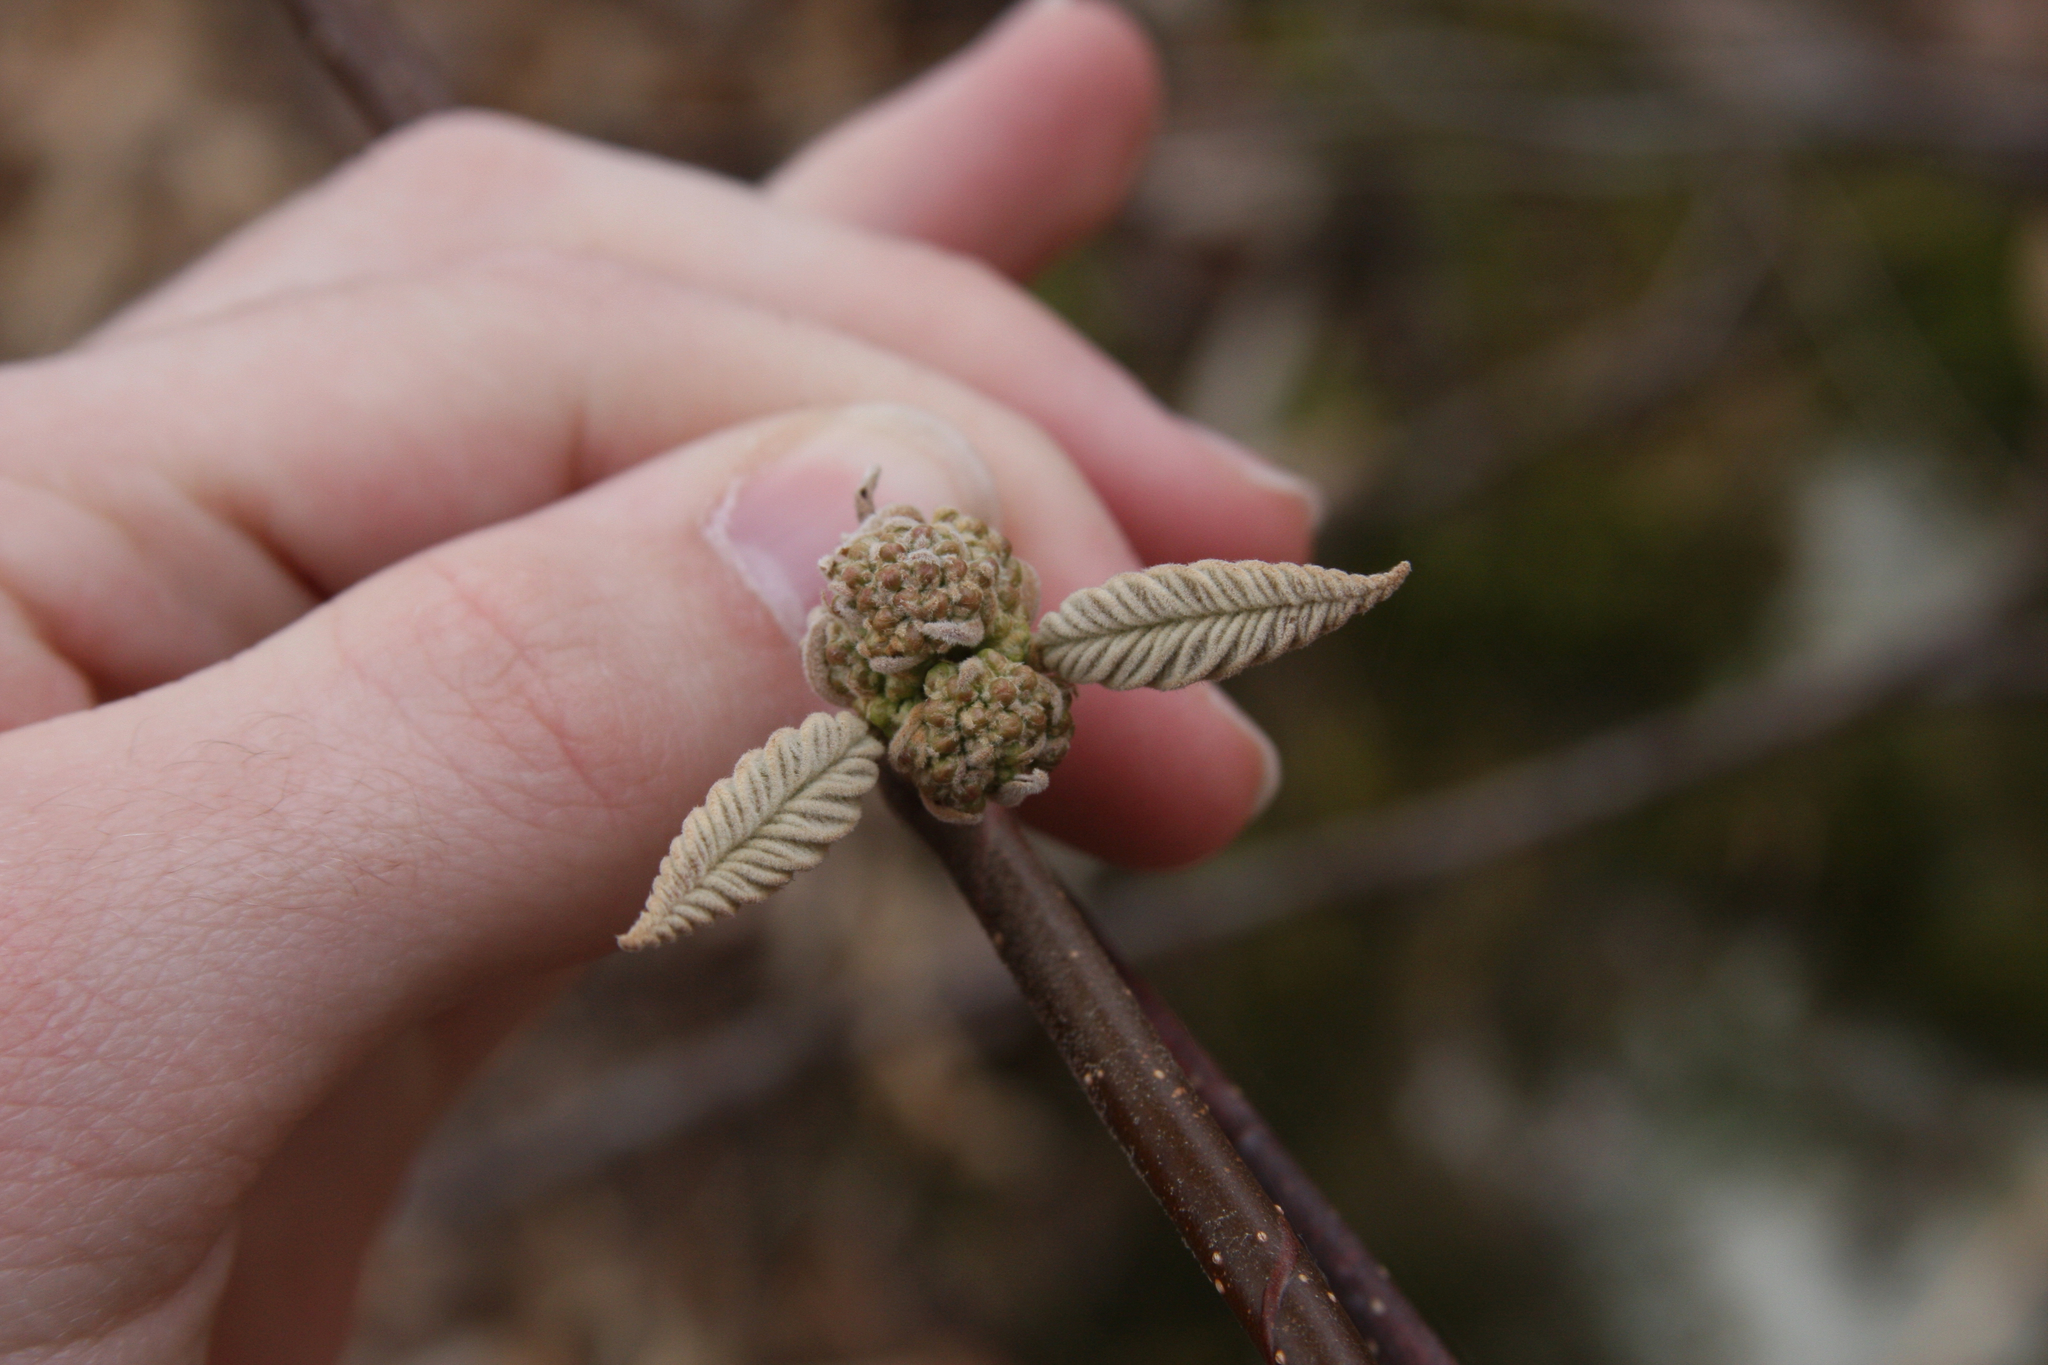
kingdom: Plantae
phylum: Tracheophyta
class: Magnoliopsida
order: Dipsacales
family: Viburnaceae
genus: Viburnum
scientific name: Viburnum lantanoides
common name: Hobblebush
